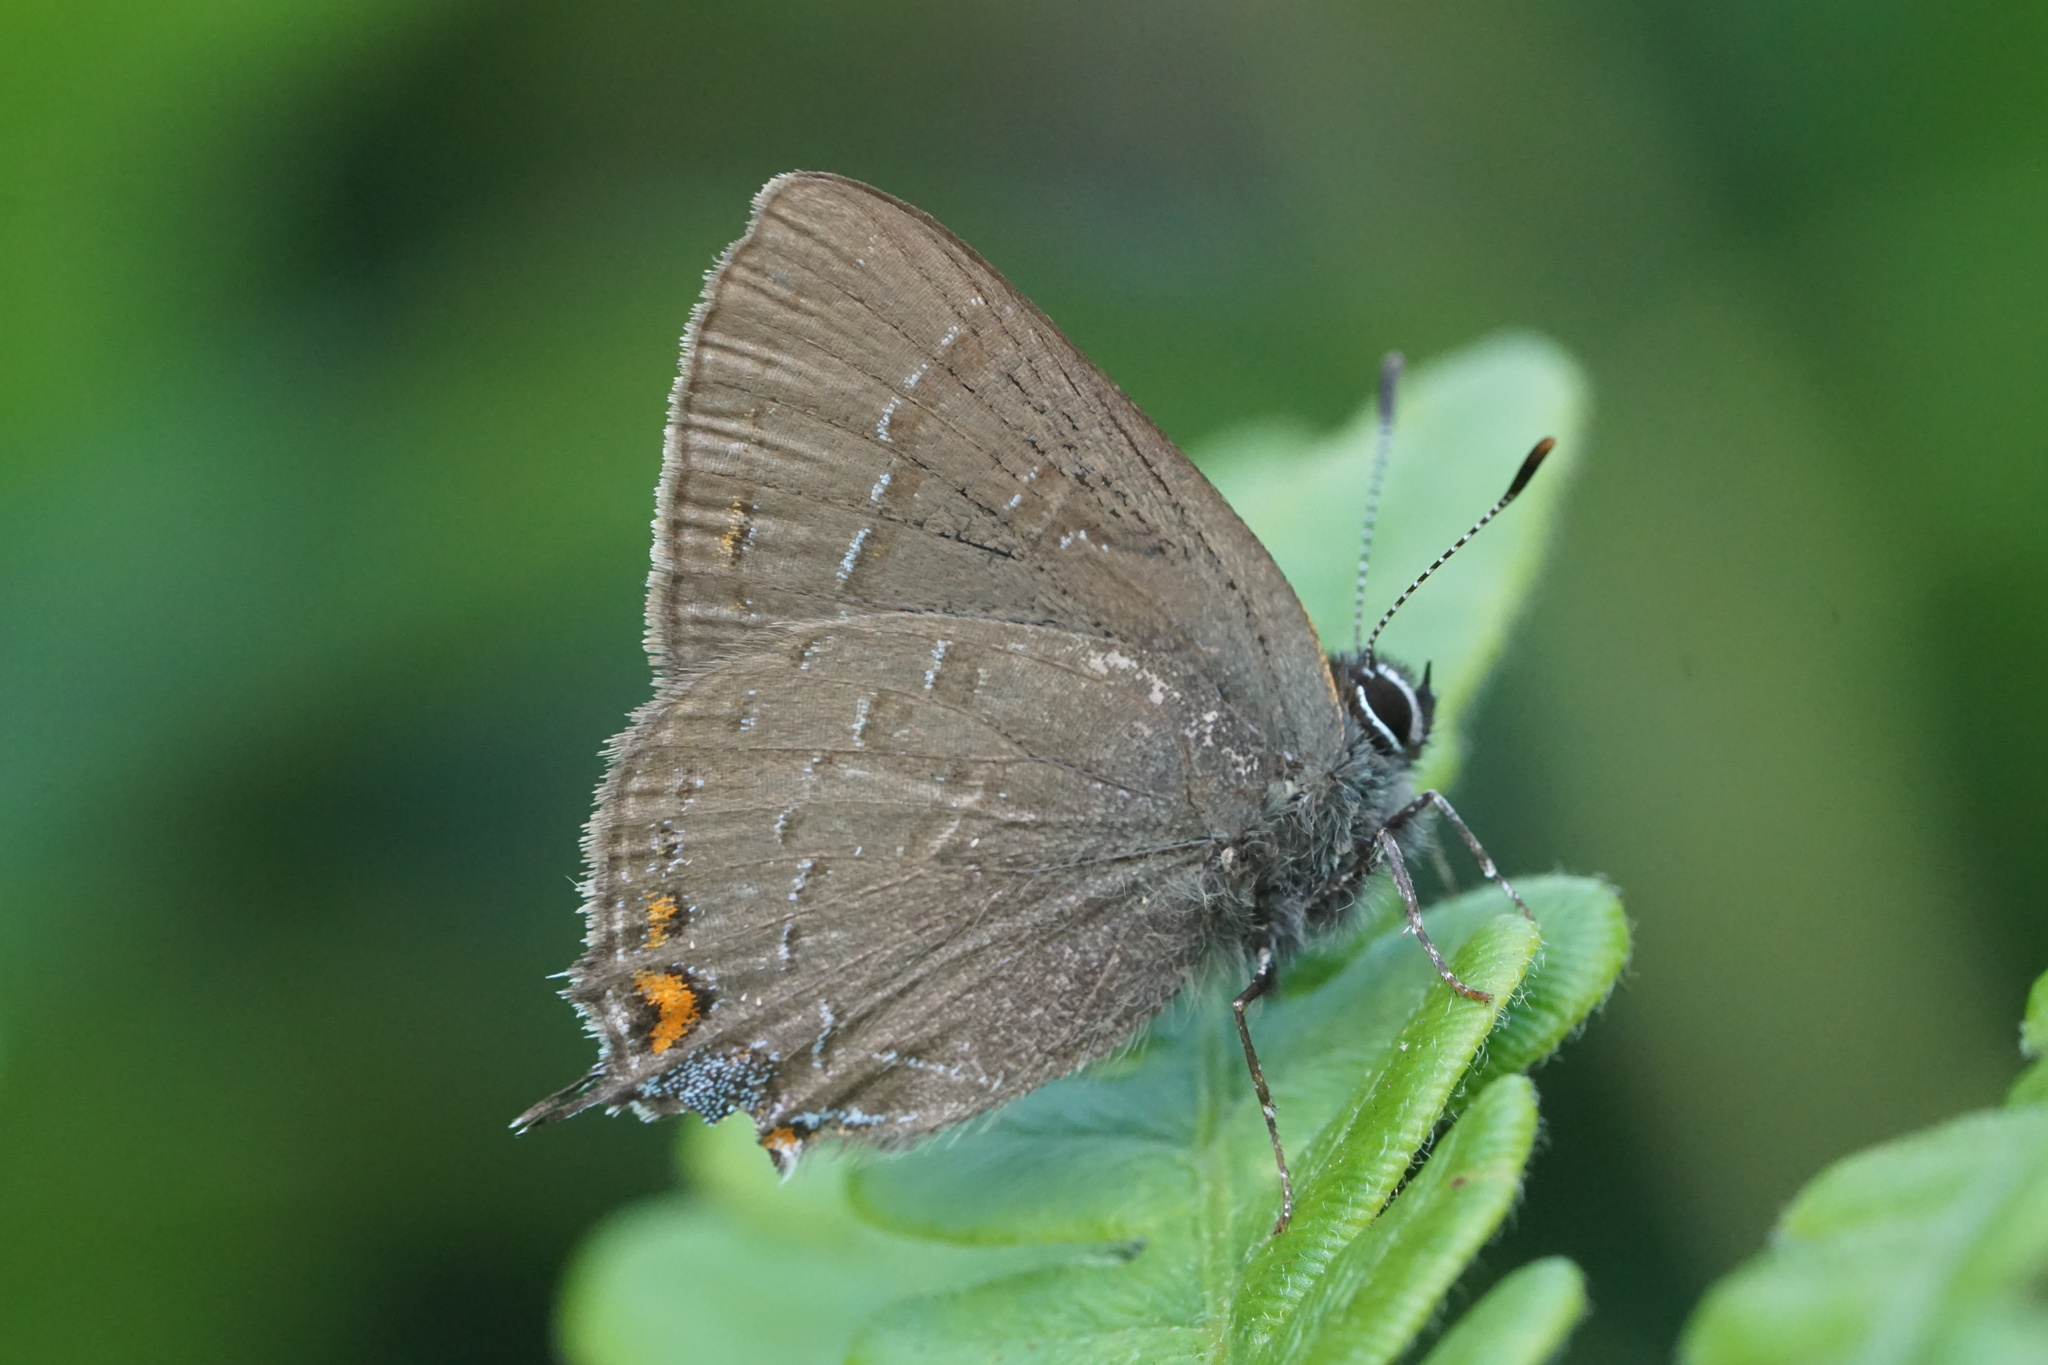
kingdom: Animalia
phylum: Arthropoda
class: Insecta
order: Lepidoptera
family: Lycaenidae
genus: Satyrium
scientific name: Satyrium calanus
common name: Banded hairstreak
